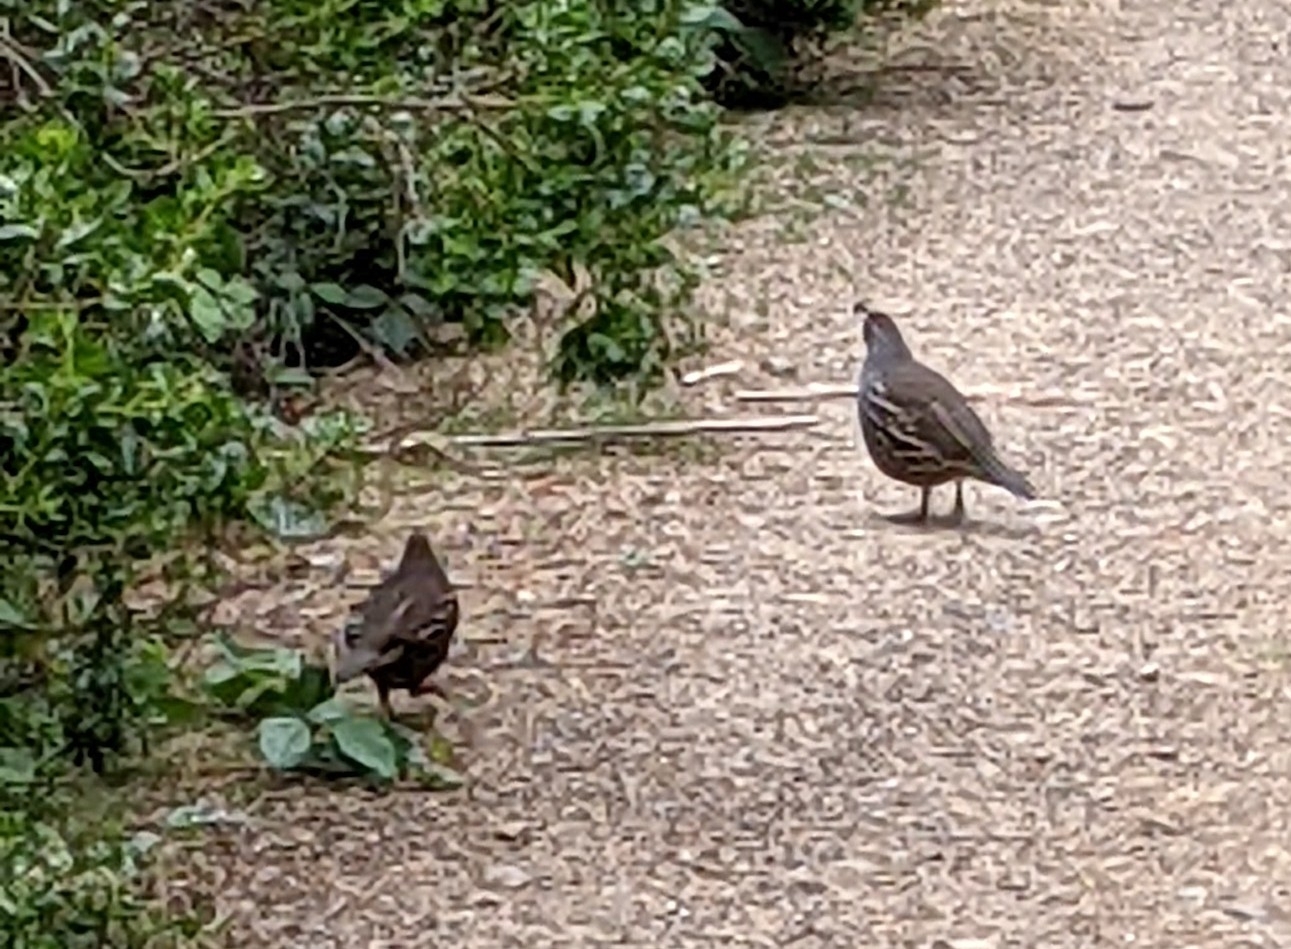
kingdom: Animalia
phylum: Chordata
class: Aves
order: Galliformes
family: Odontophoridae
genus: Callipepla
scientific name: Callipepla californica
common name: California quail
